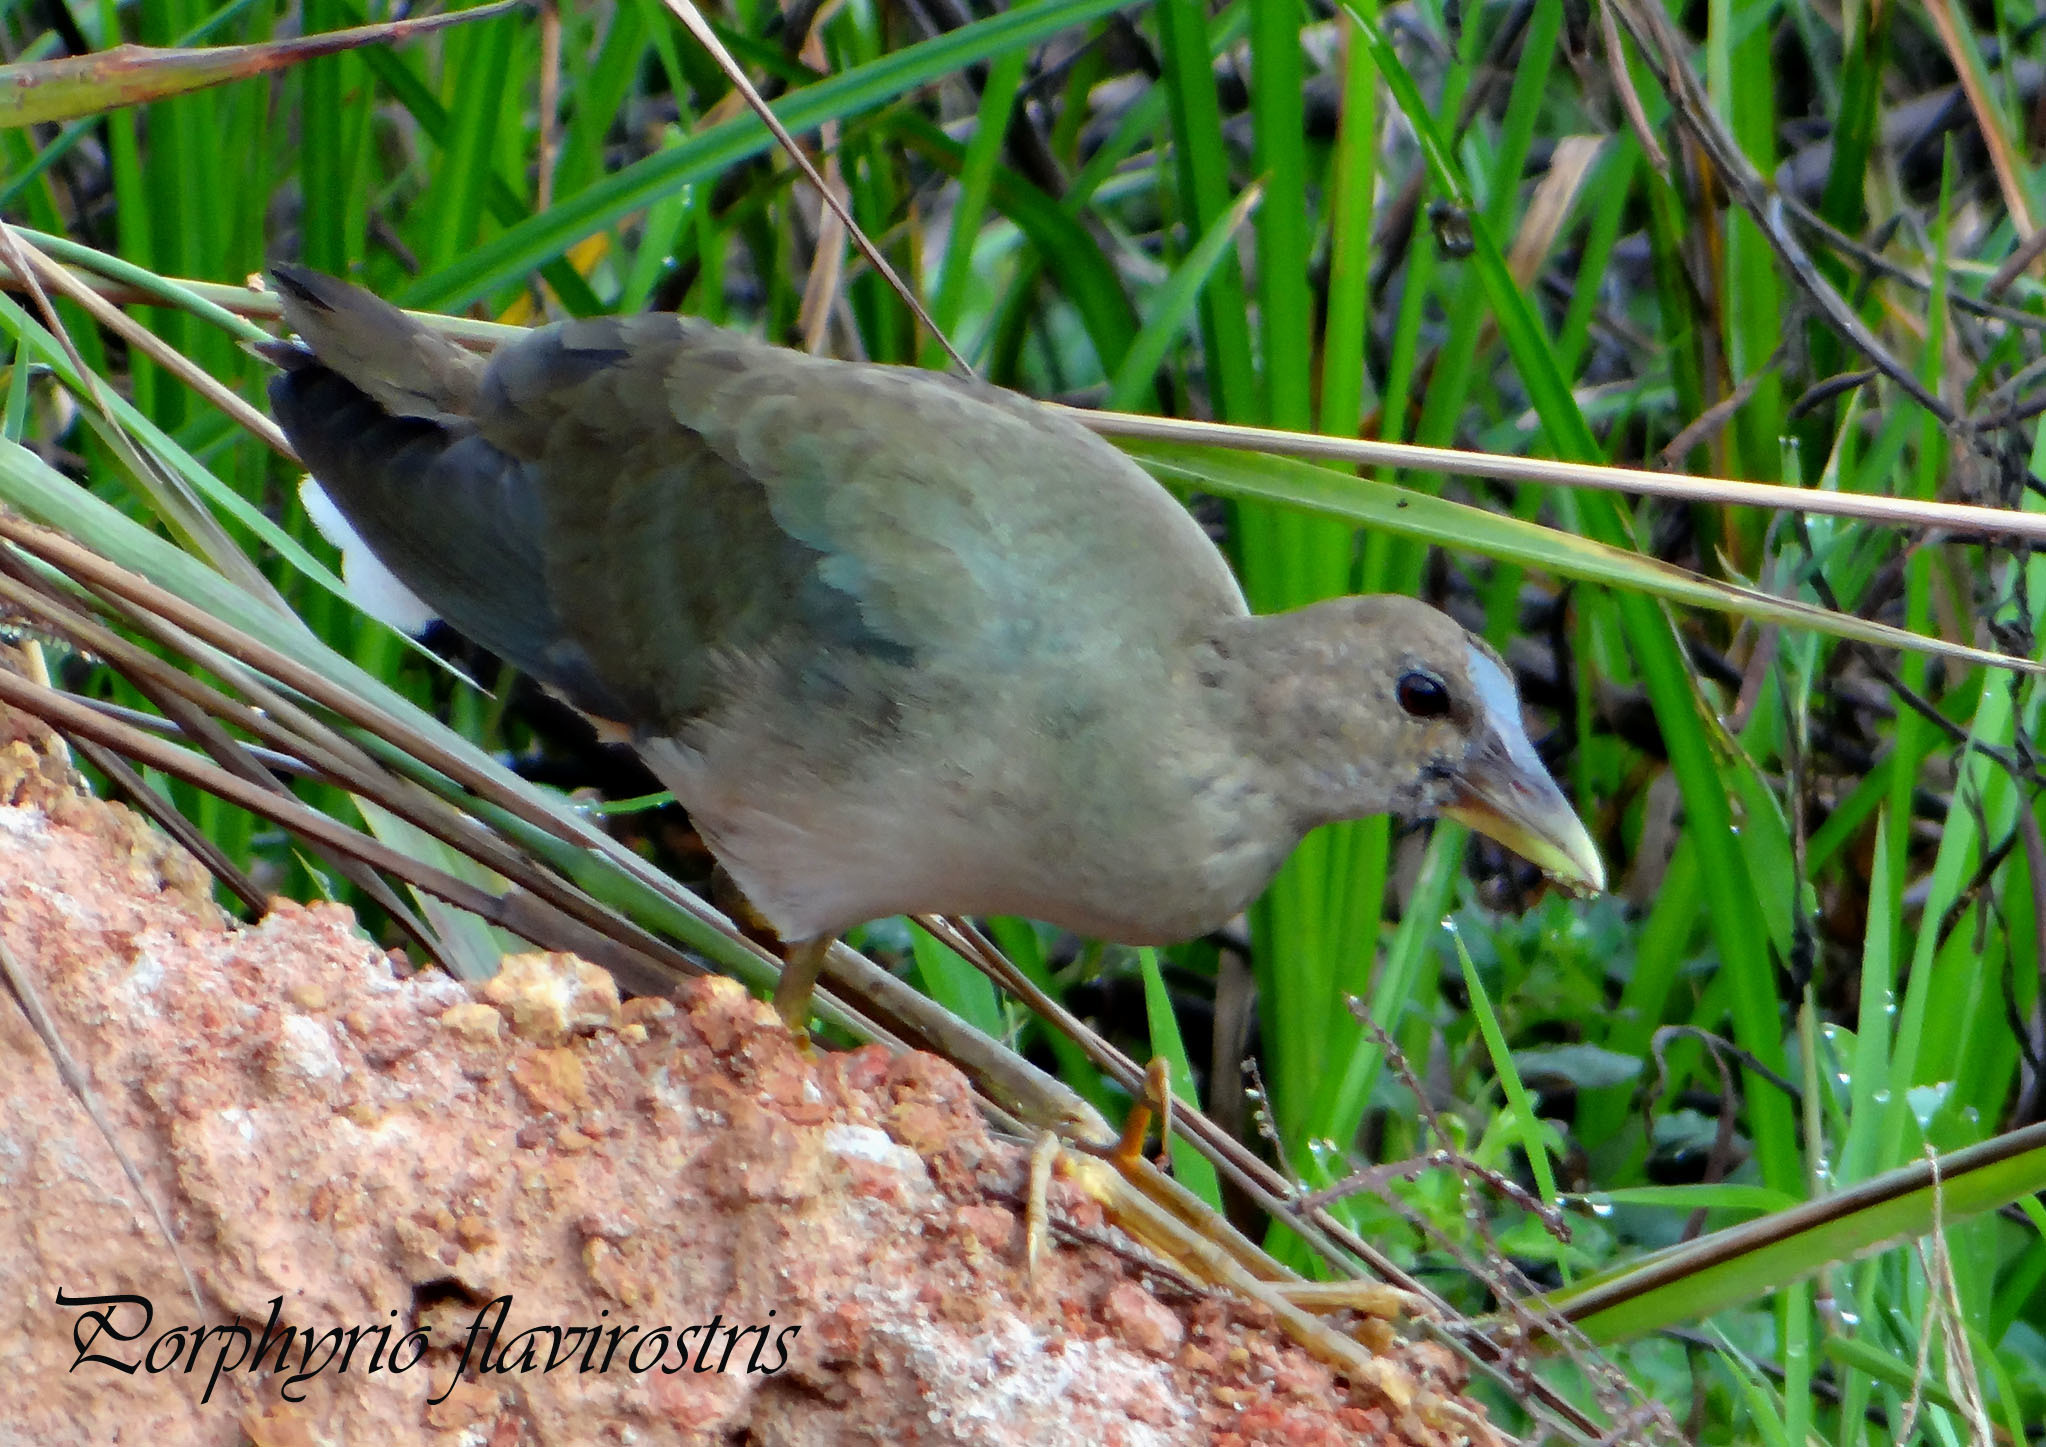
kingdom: Animalia
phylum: Chordata
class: Aves
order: Gruiformes
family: Rallidae
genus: Porphyrio
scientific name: Porphyrio martinica
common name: Purple gallinule
